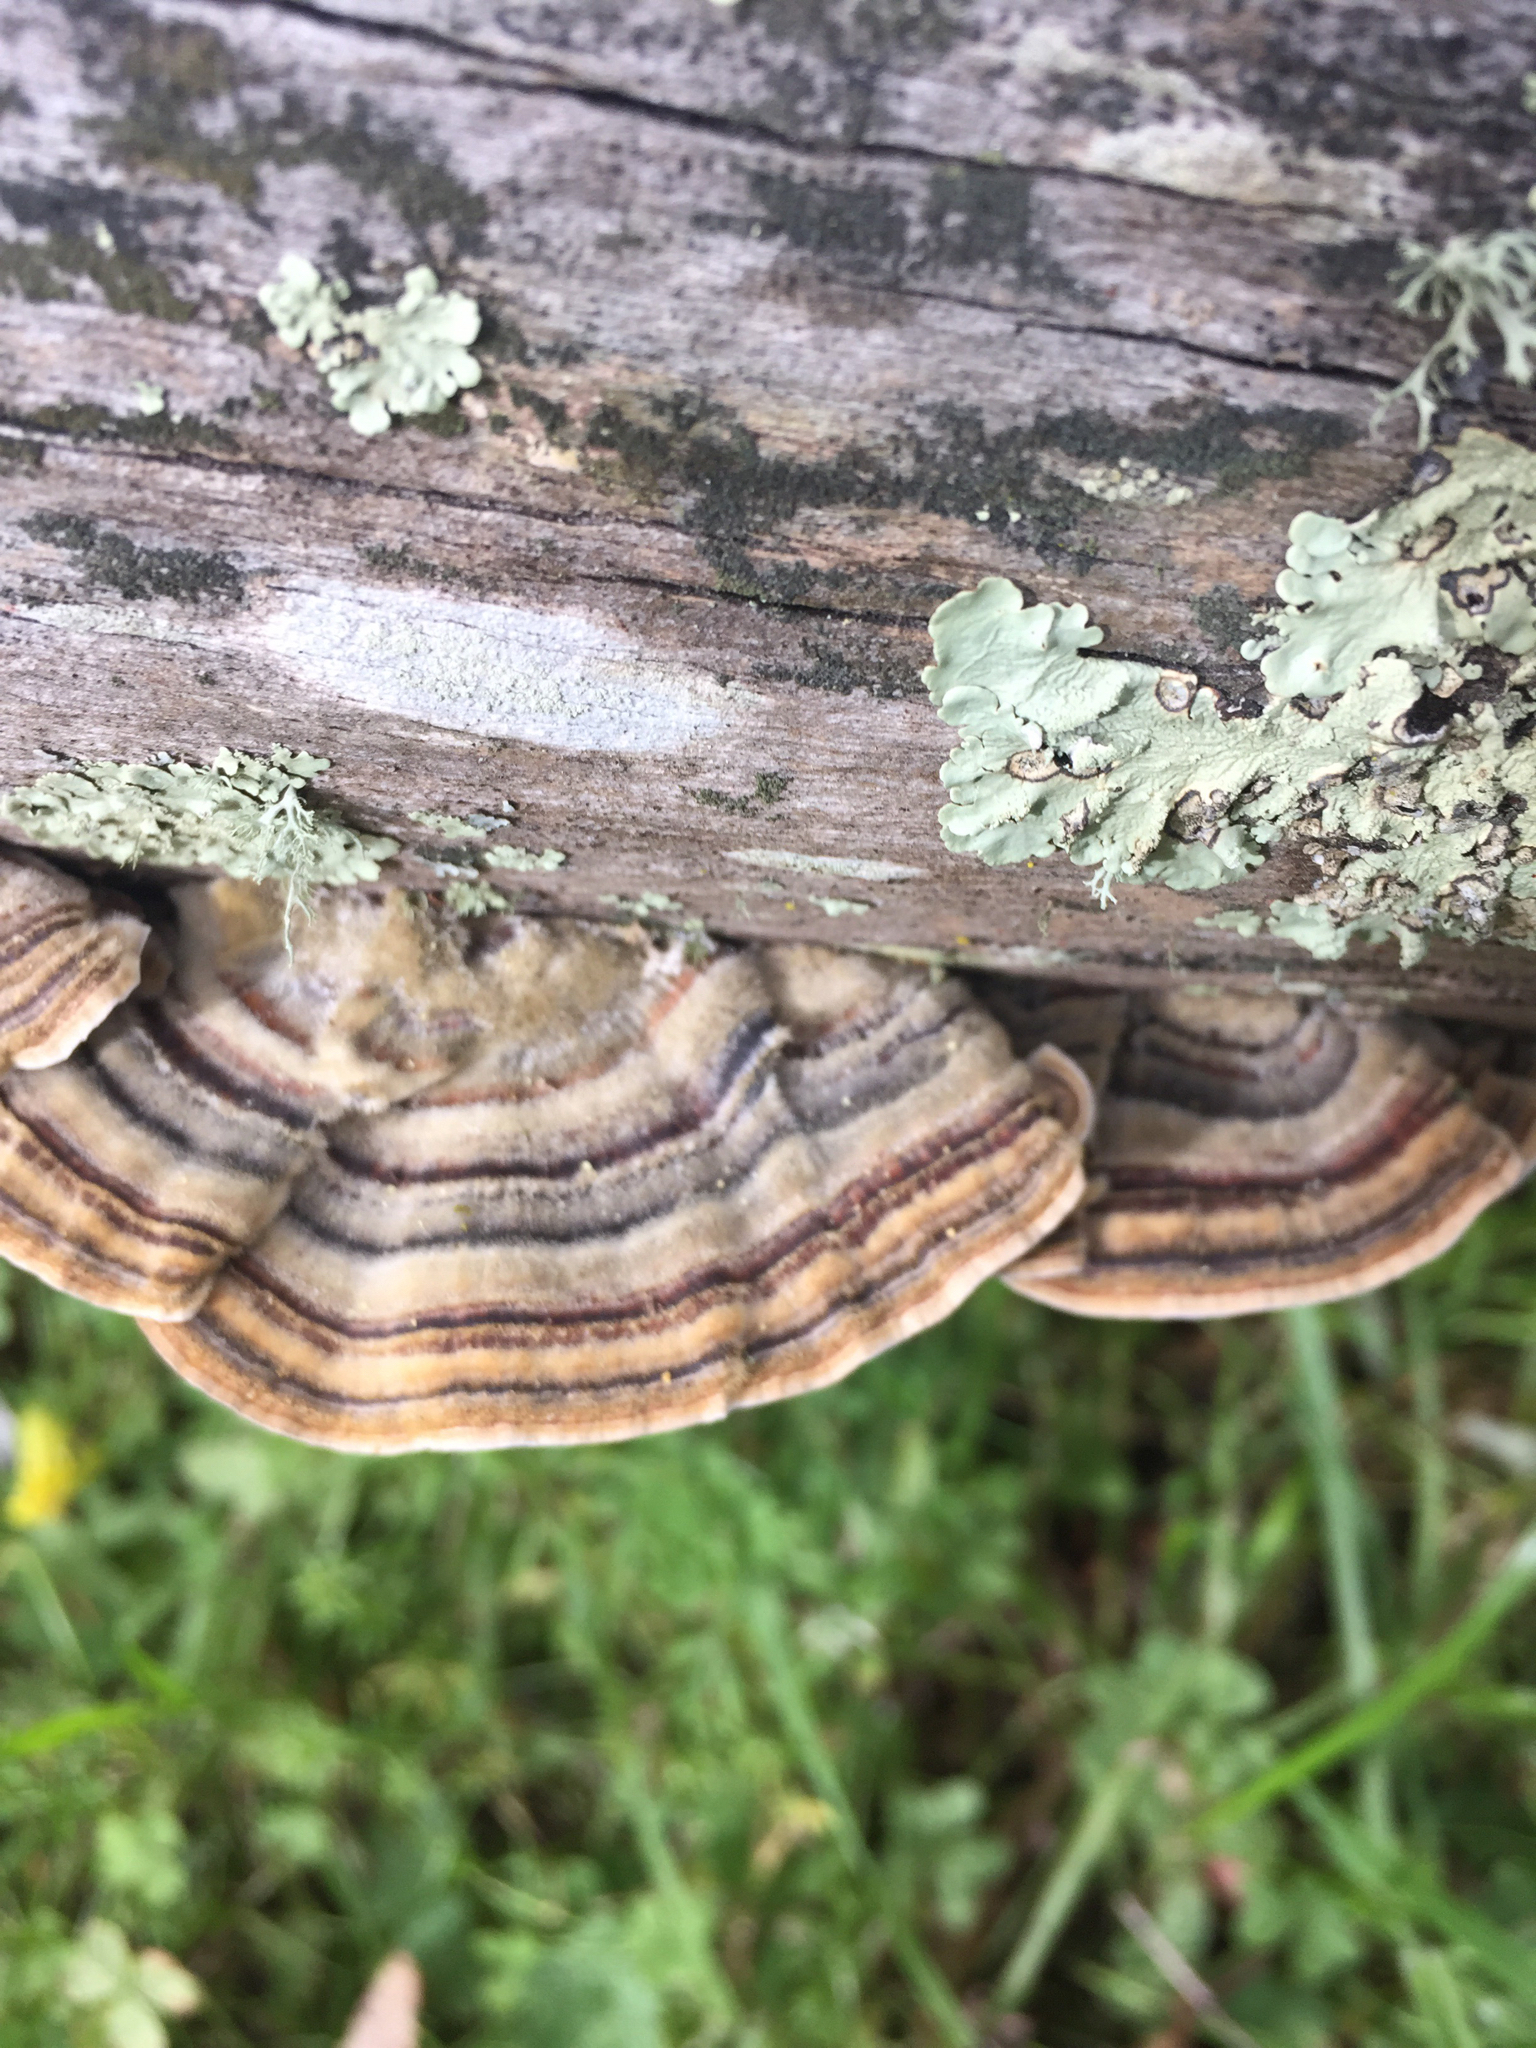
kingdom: Fungi
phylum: Basidiomycota
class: Agaricomycetes
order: Polyporales
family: Polyporaceae
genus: Trametes
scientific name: Trametes versicolor
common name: Turkeytail
